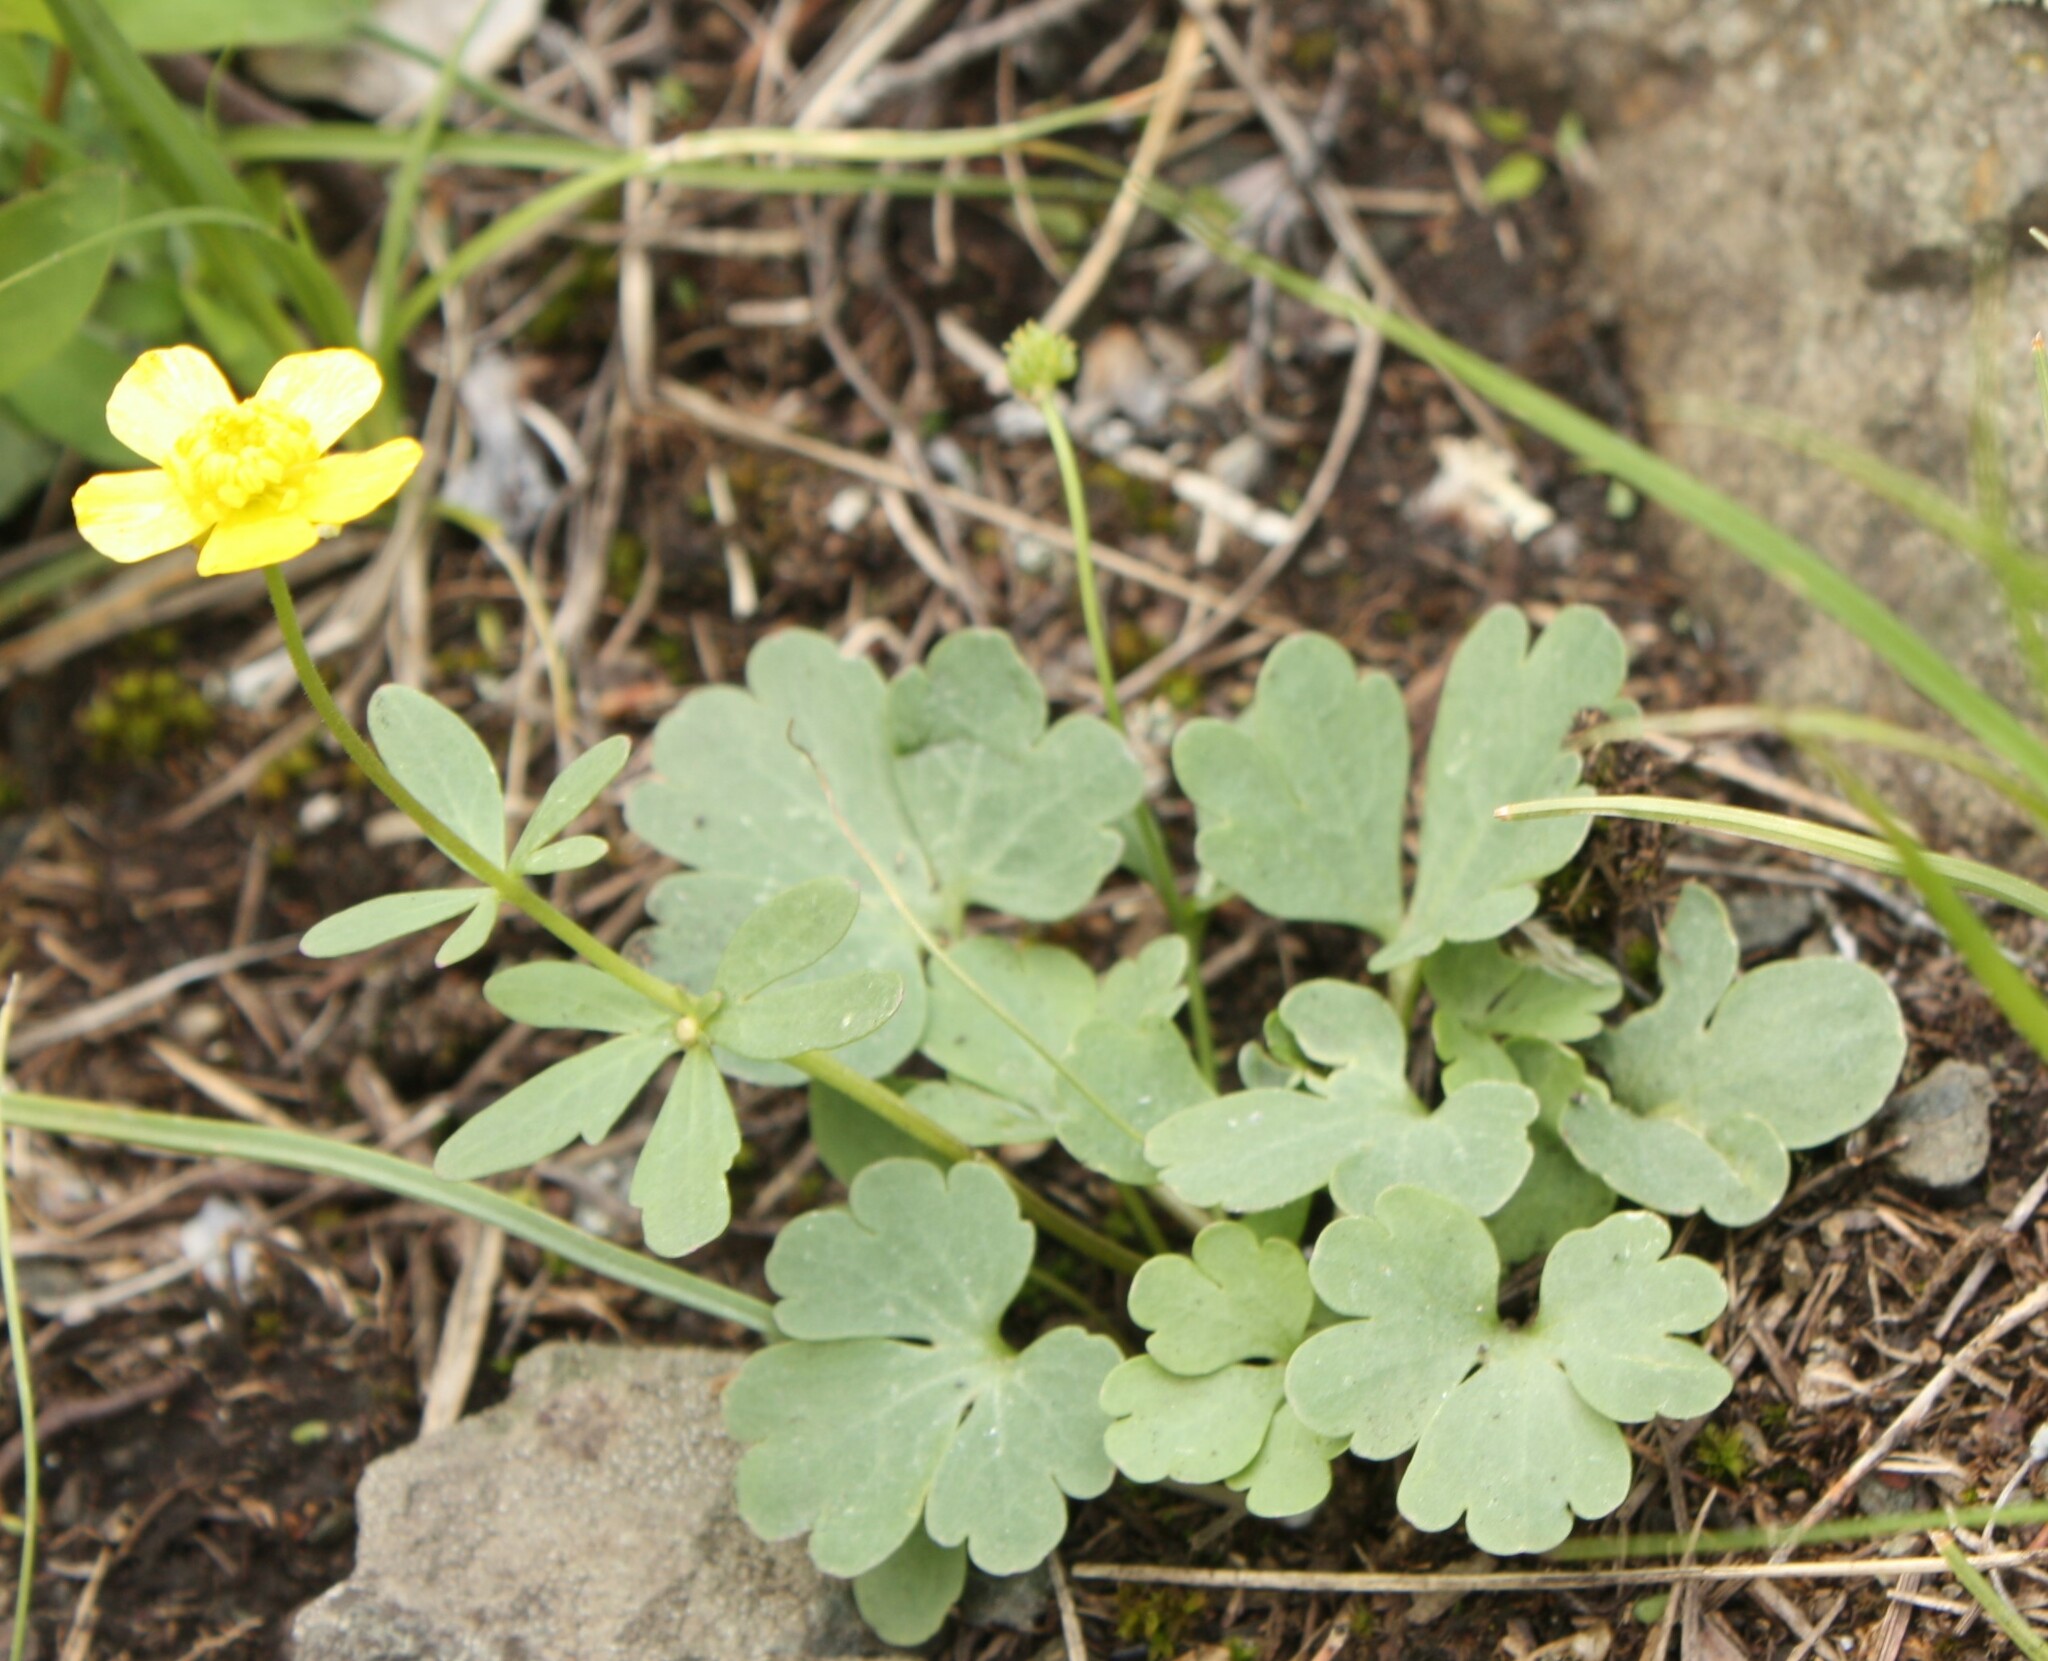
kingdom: Plantae
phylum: Tracheophyta
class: Magnoliopsida
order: Ranunculales
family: Ranunculaceae
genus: Ranunculus
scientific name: Ranunculus polyrhizos
